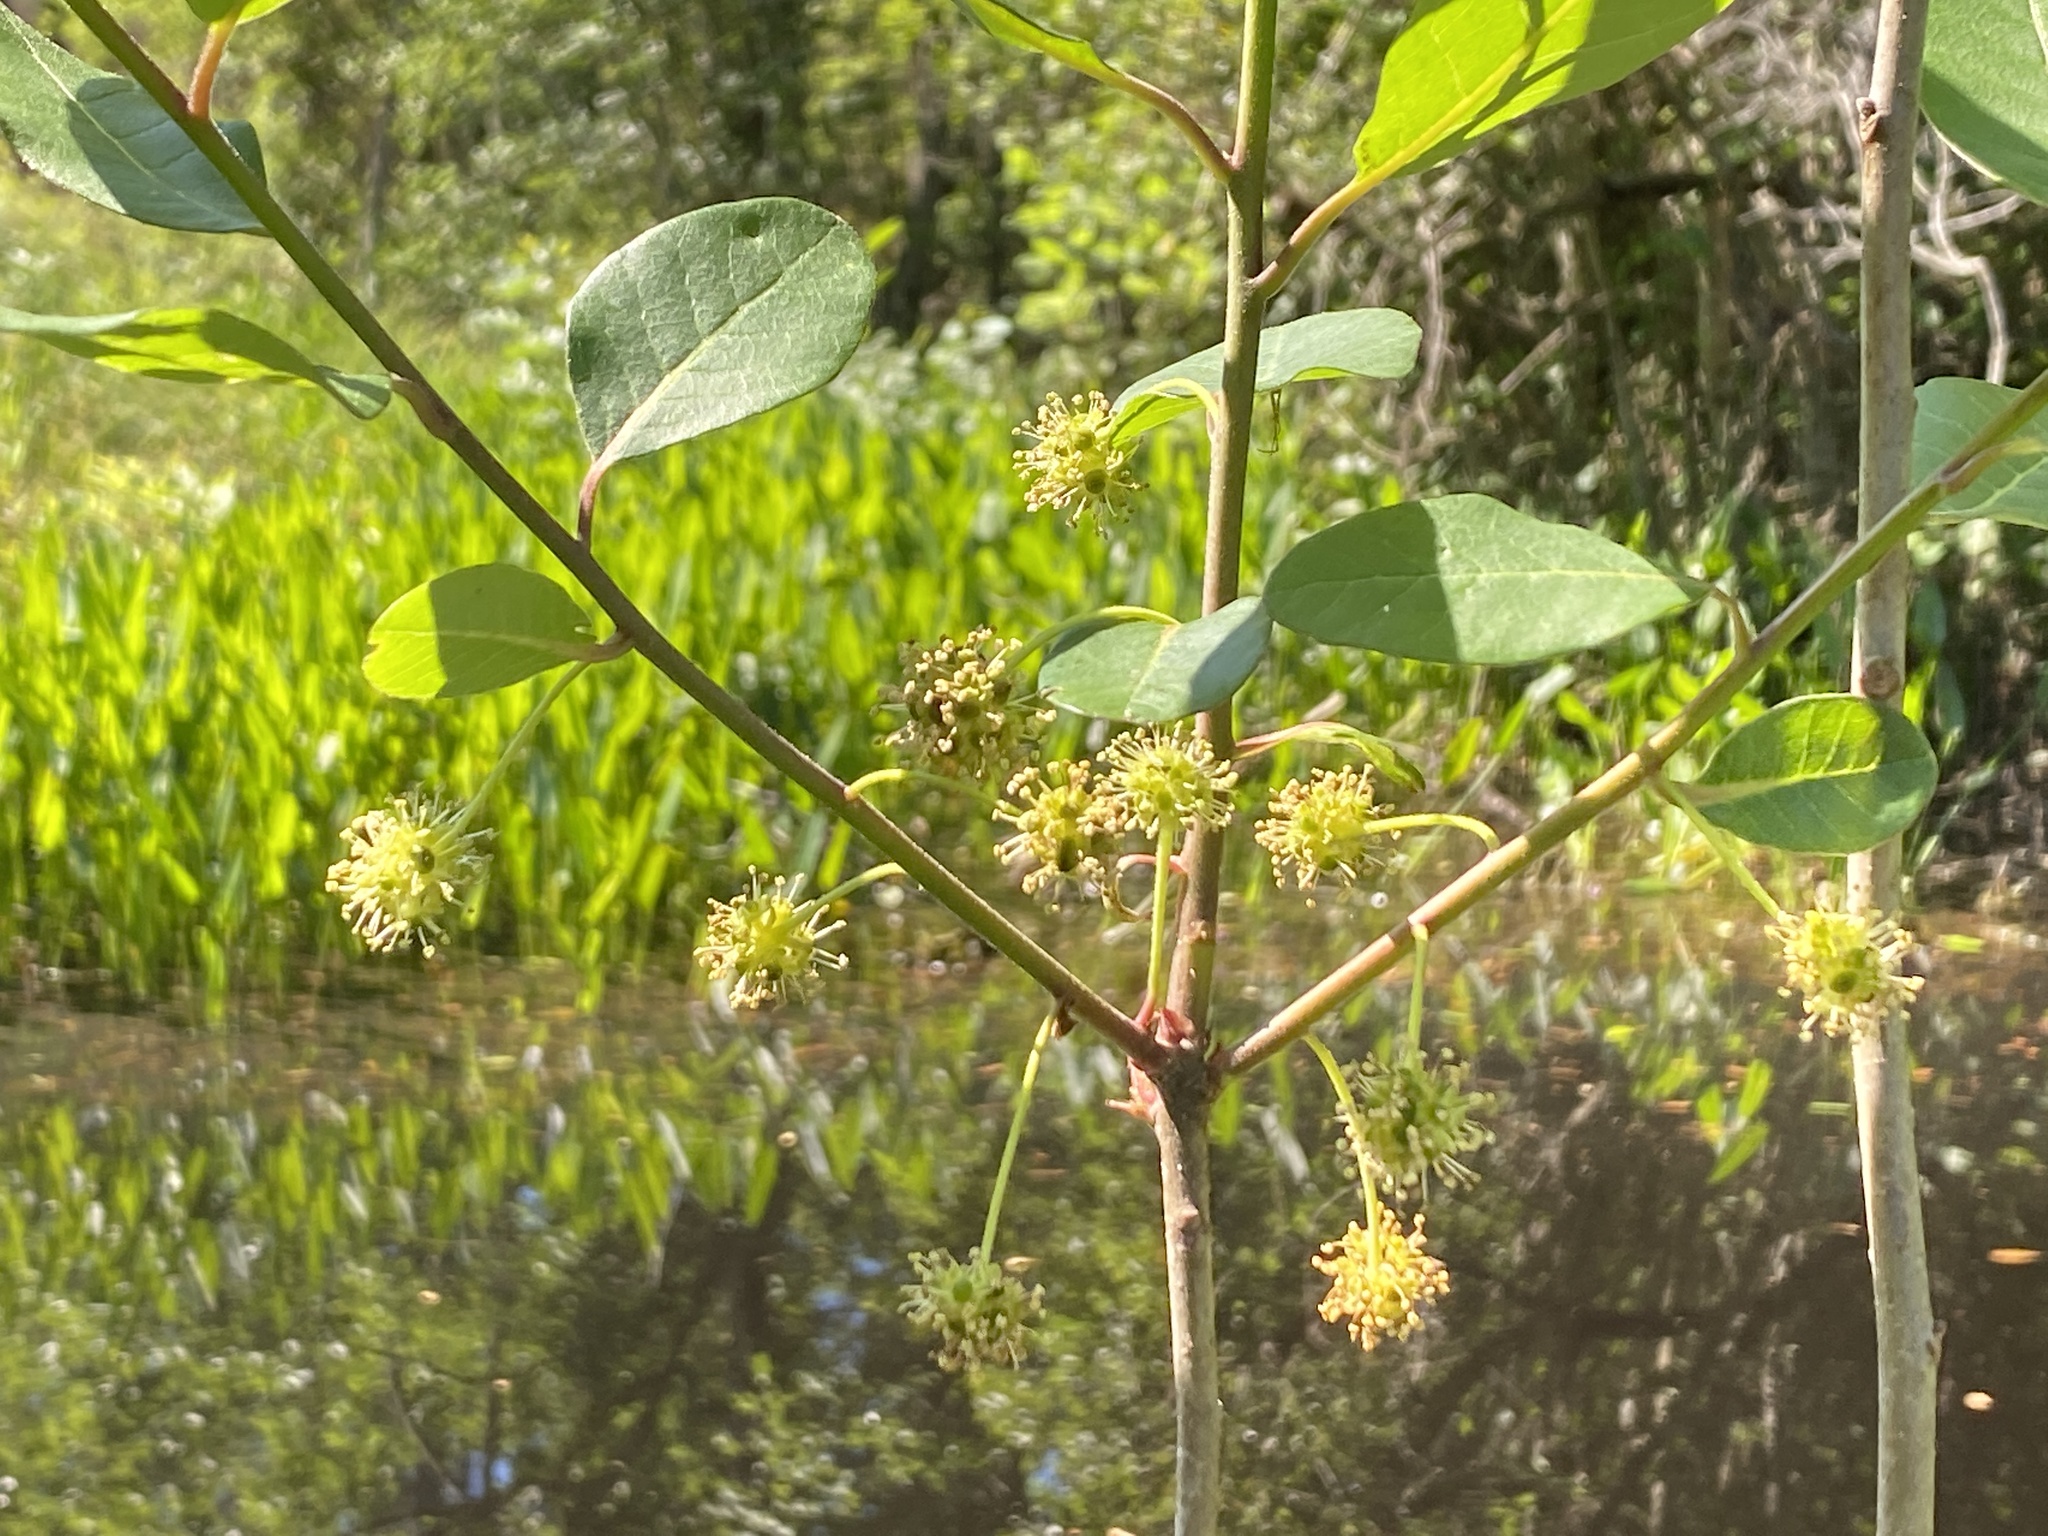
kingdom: Plantae
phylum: Tracheophyta
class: Magnoliopsida
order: Cornales
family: Nyssaceae
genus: Nyssa
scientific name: Nyssa ogeche
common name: Ogeechee tupelo
